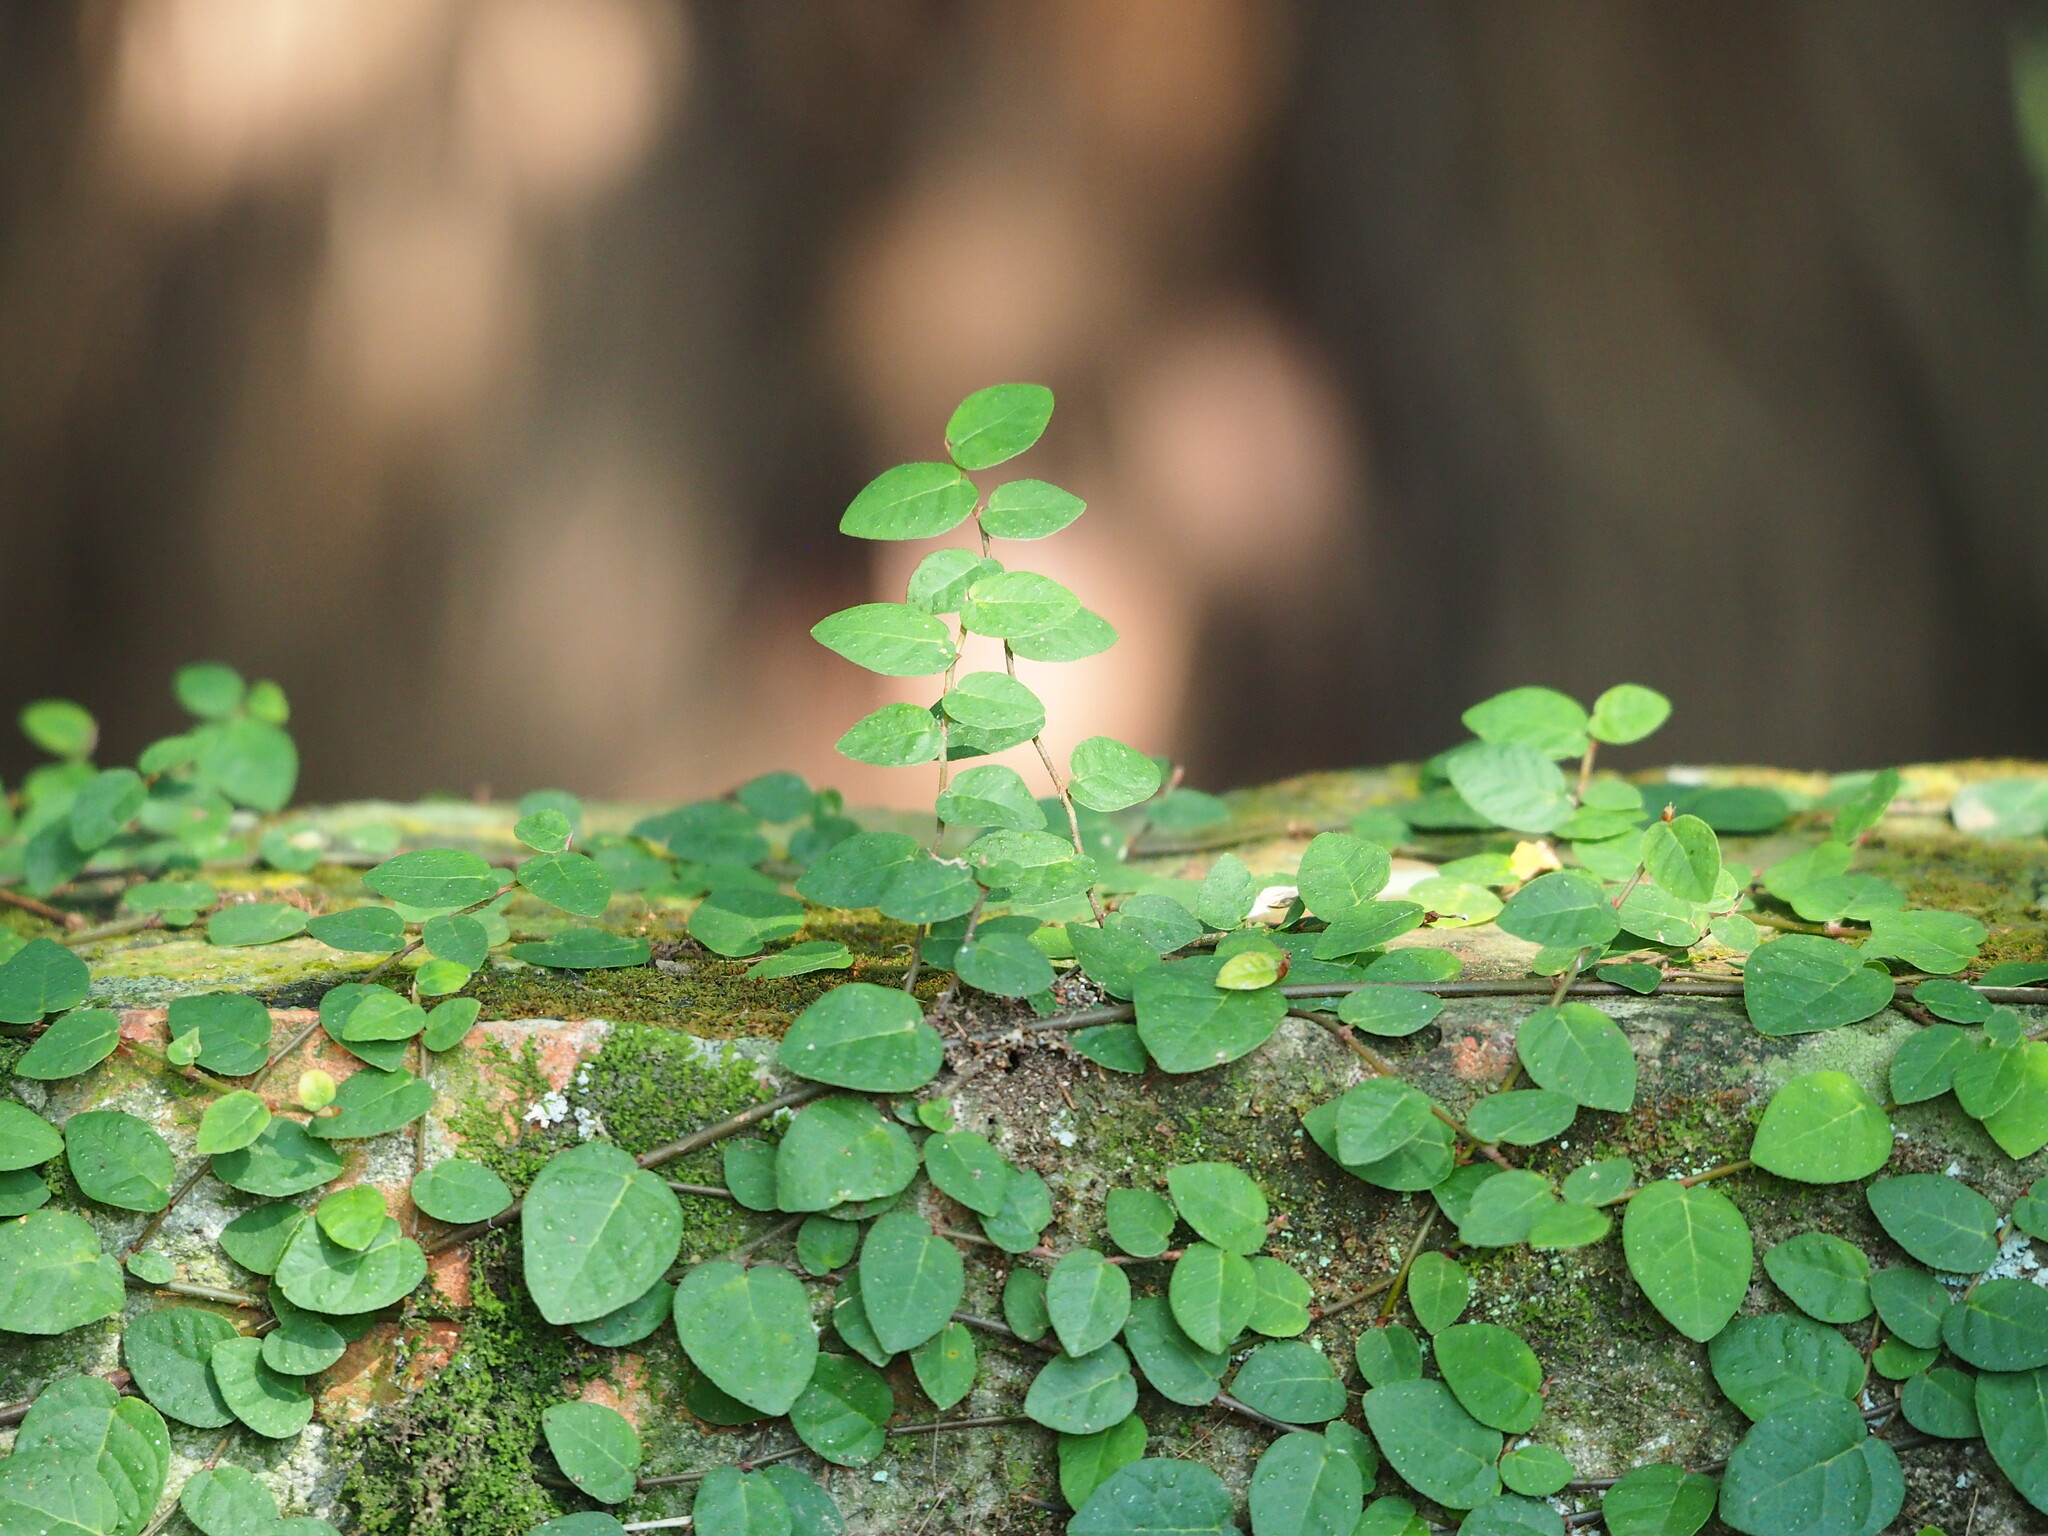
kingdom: Plantae
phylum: Tracheophyta
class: Magnoliopsida
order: Rosales
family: Moraceae
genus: Ficus
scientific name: Ficus pumila
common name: Climbingfig
